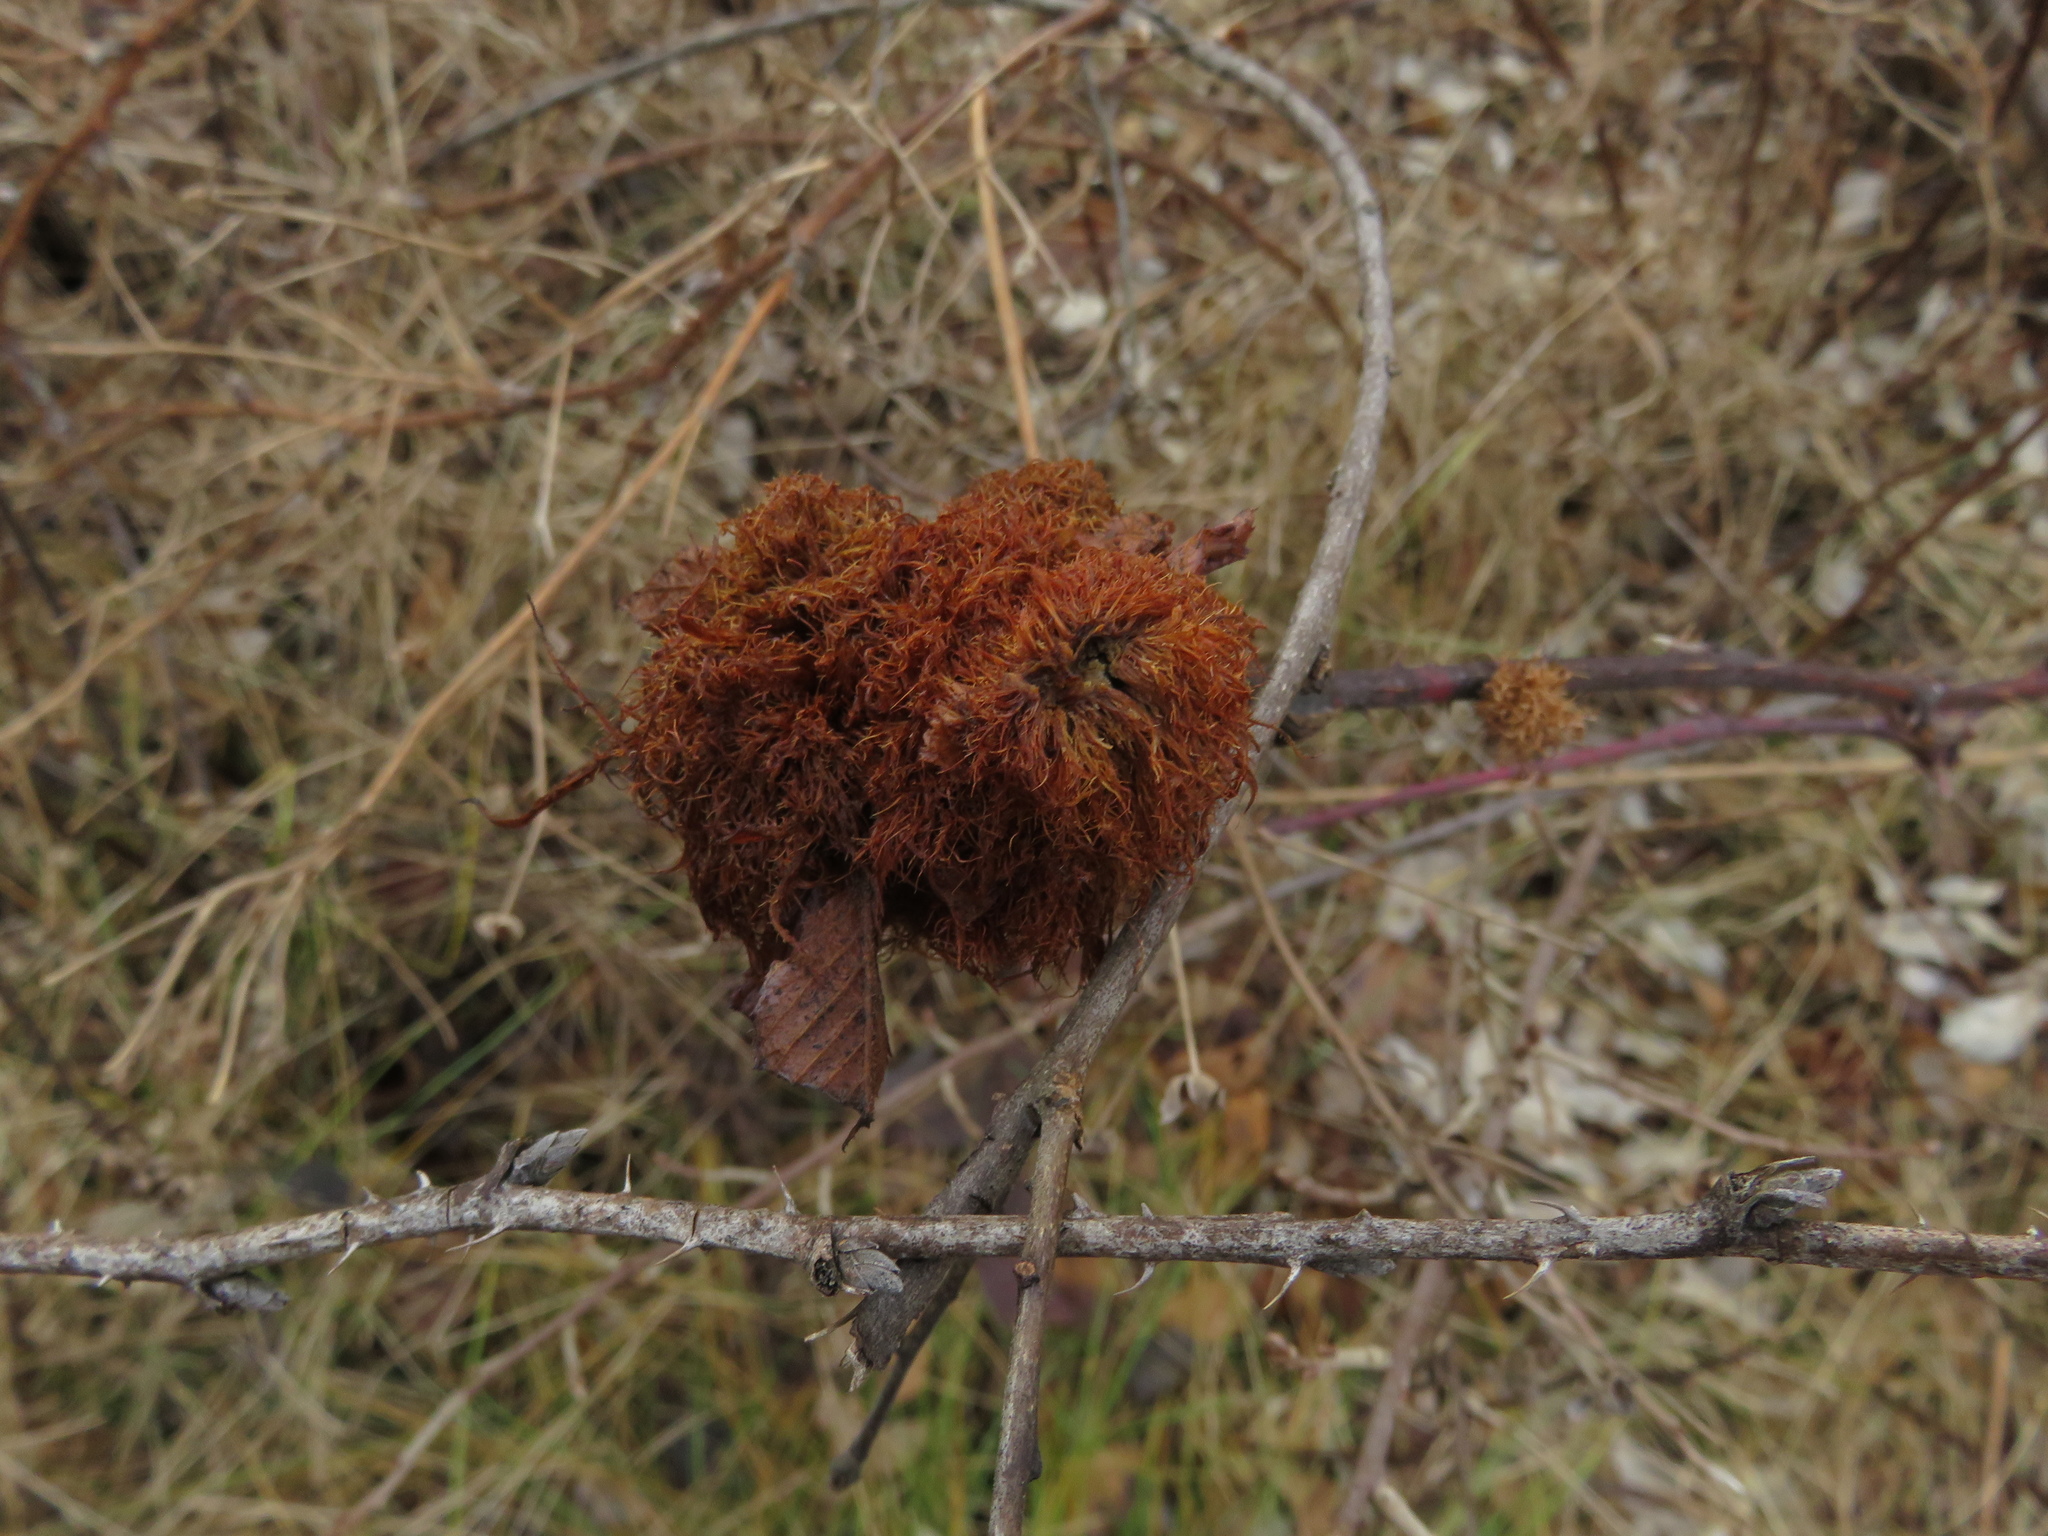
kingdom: Animalia
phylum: Arthropoda
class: Insecta
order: Hymenoptera
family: Cynipidae
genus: Diplolepis
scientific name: Diplolepis rosae
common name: Bedeguar gall
